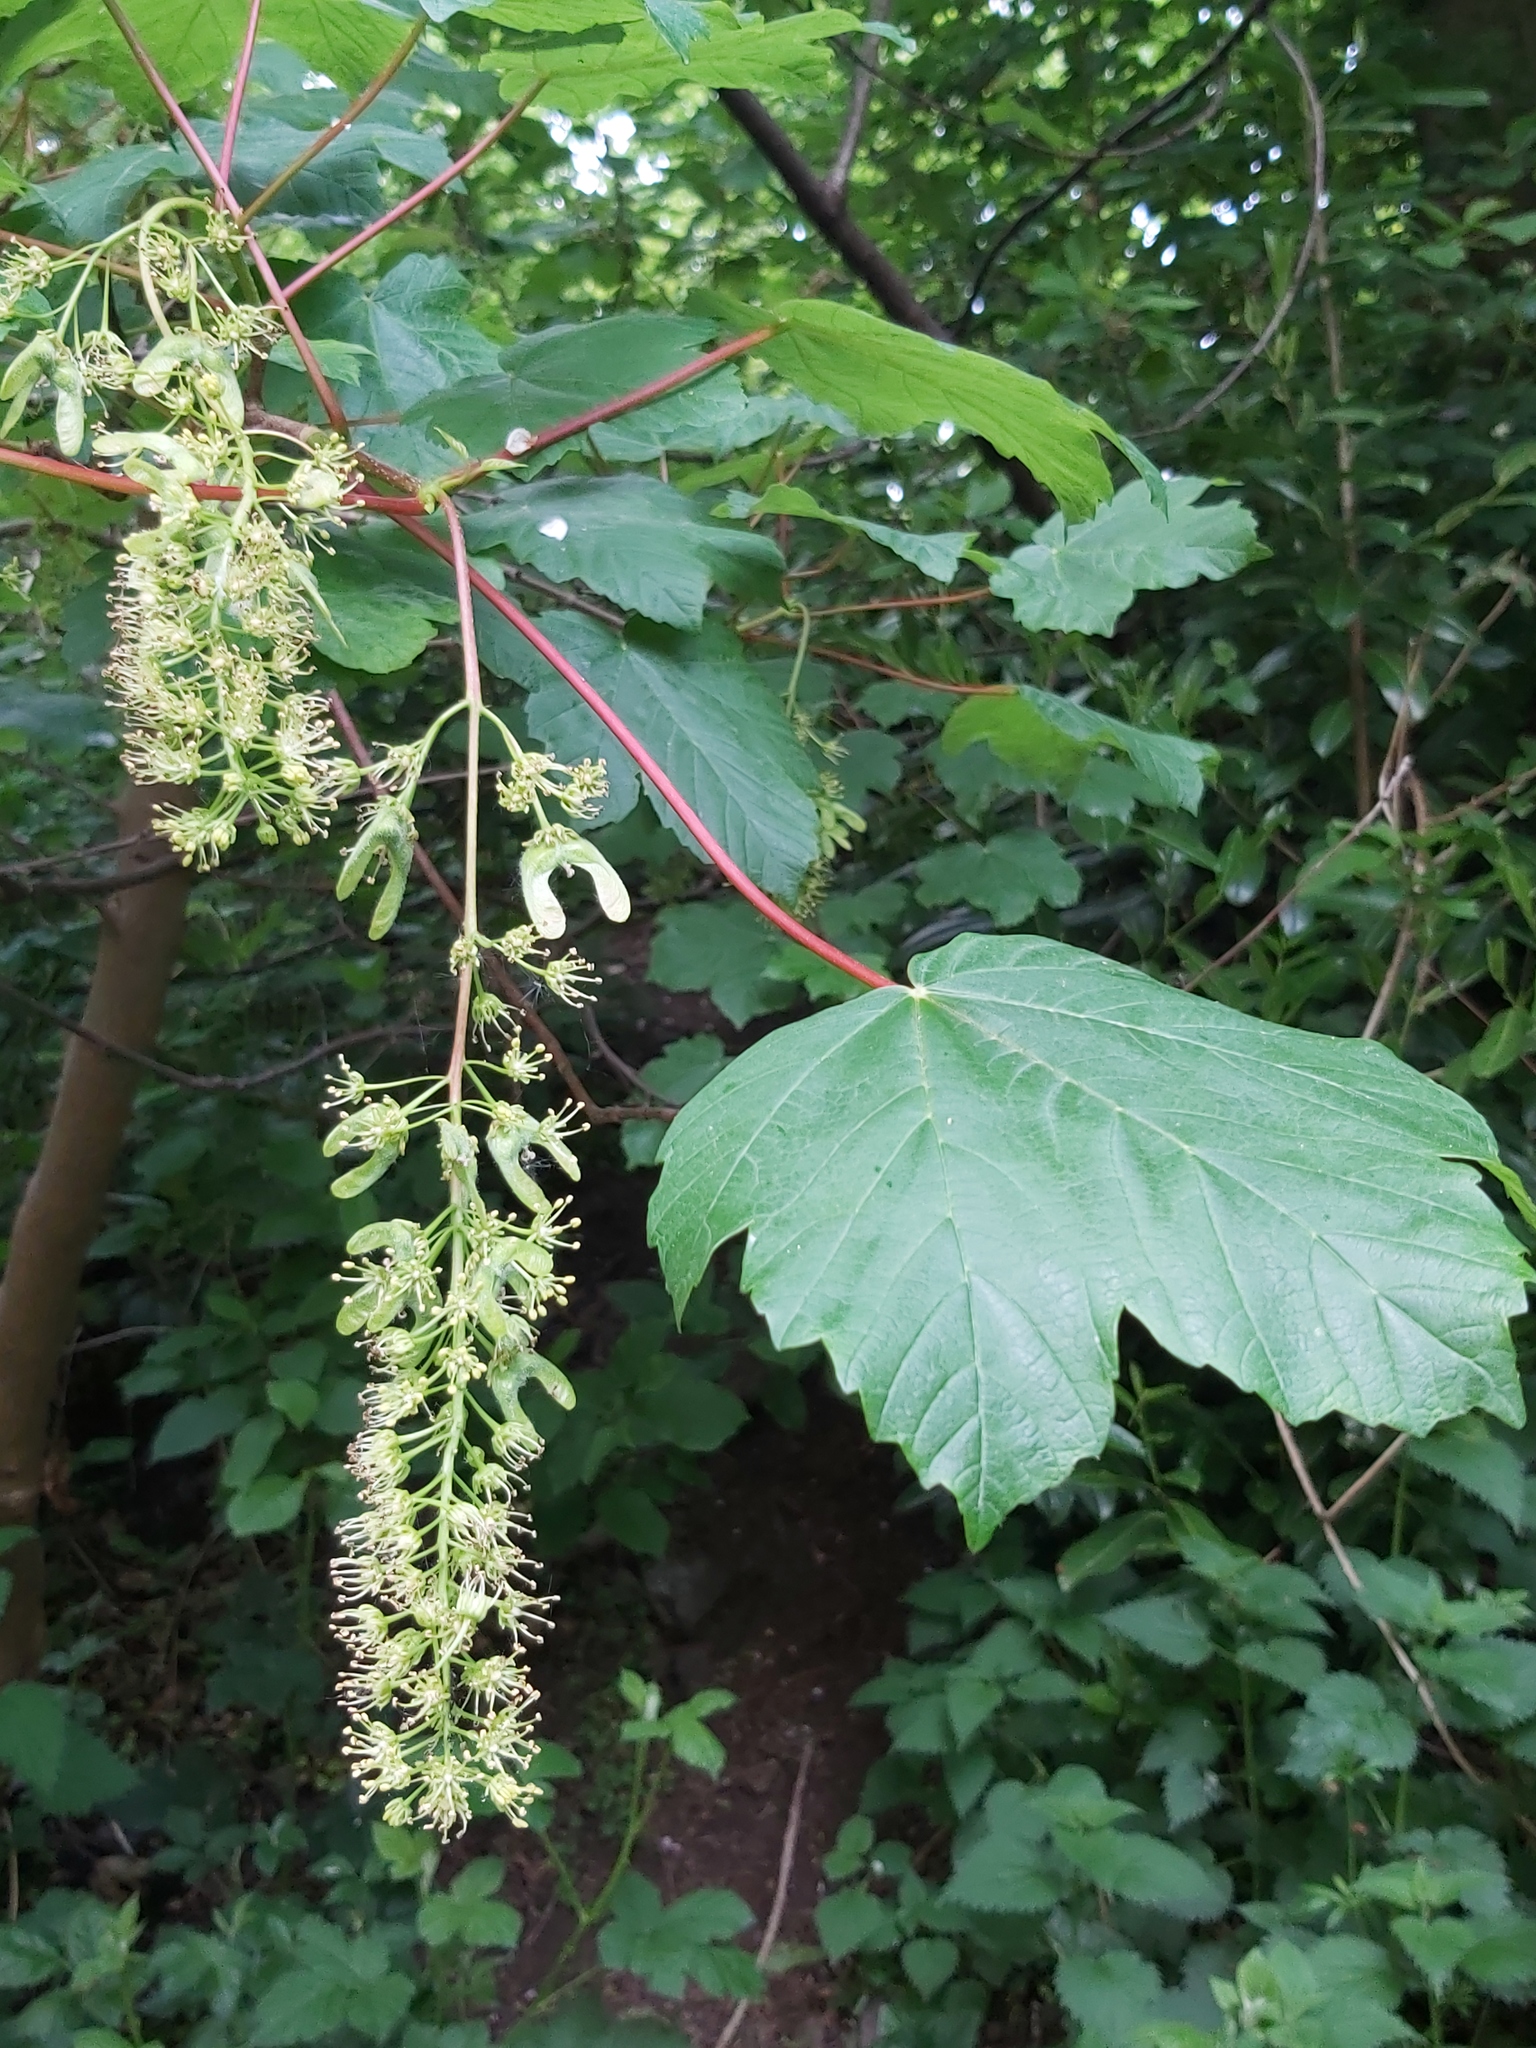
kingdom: Plantae
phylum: Tracheophyta
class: Magnoliopsida
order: Sapindales
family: Sapindaceae
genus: Acer
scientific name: Acer pseudoplatanus
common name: Sycamore
